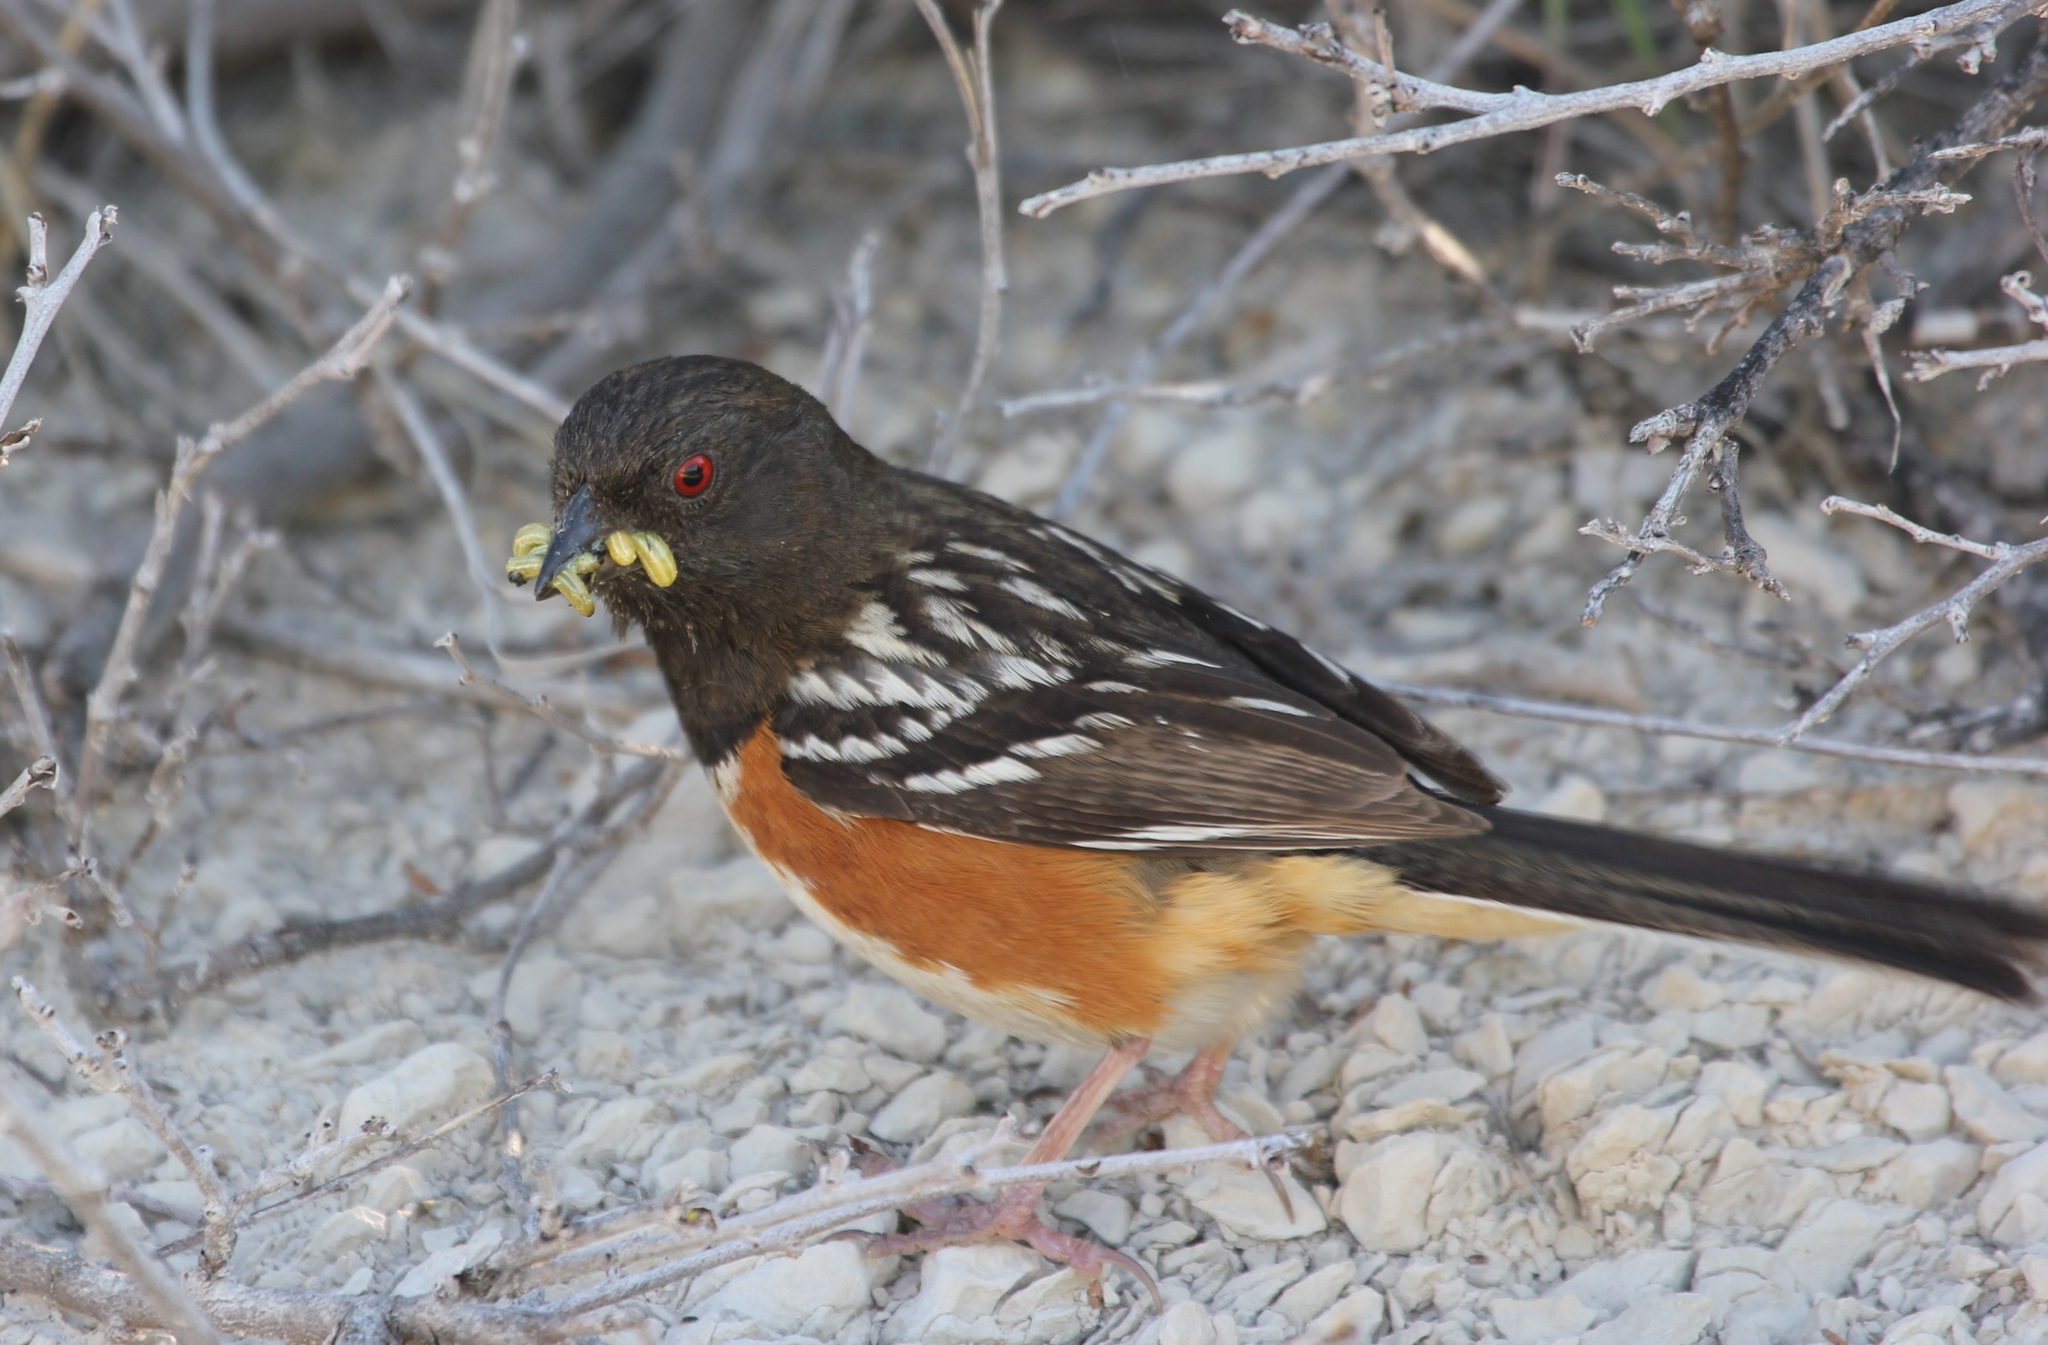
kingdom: Animalia
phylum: Chordata
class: Aves
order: Passeriformes
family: Passerellidae
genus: Pipilo
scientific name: Pipilo maculatus
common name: Spotted towhee
